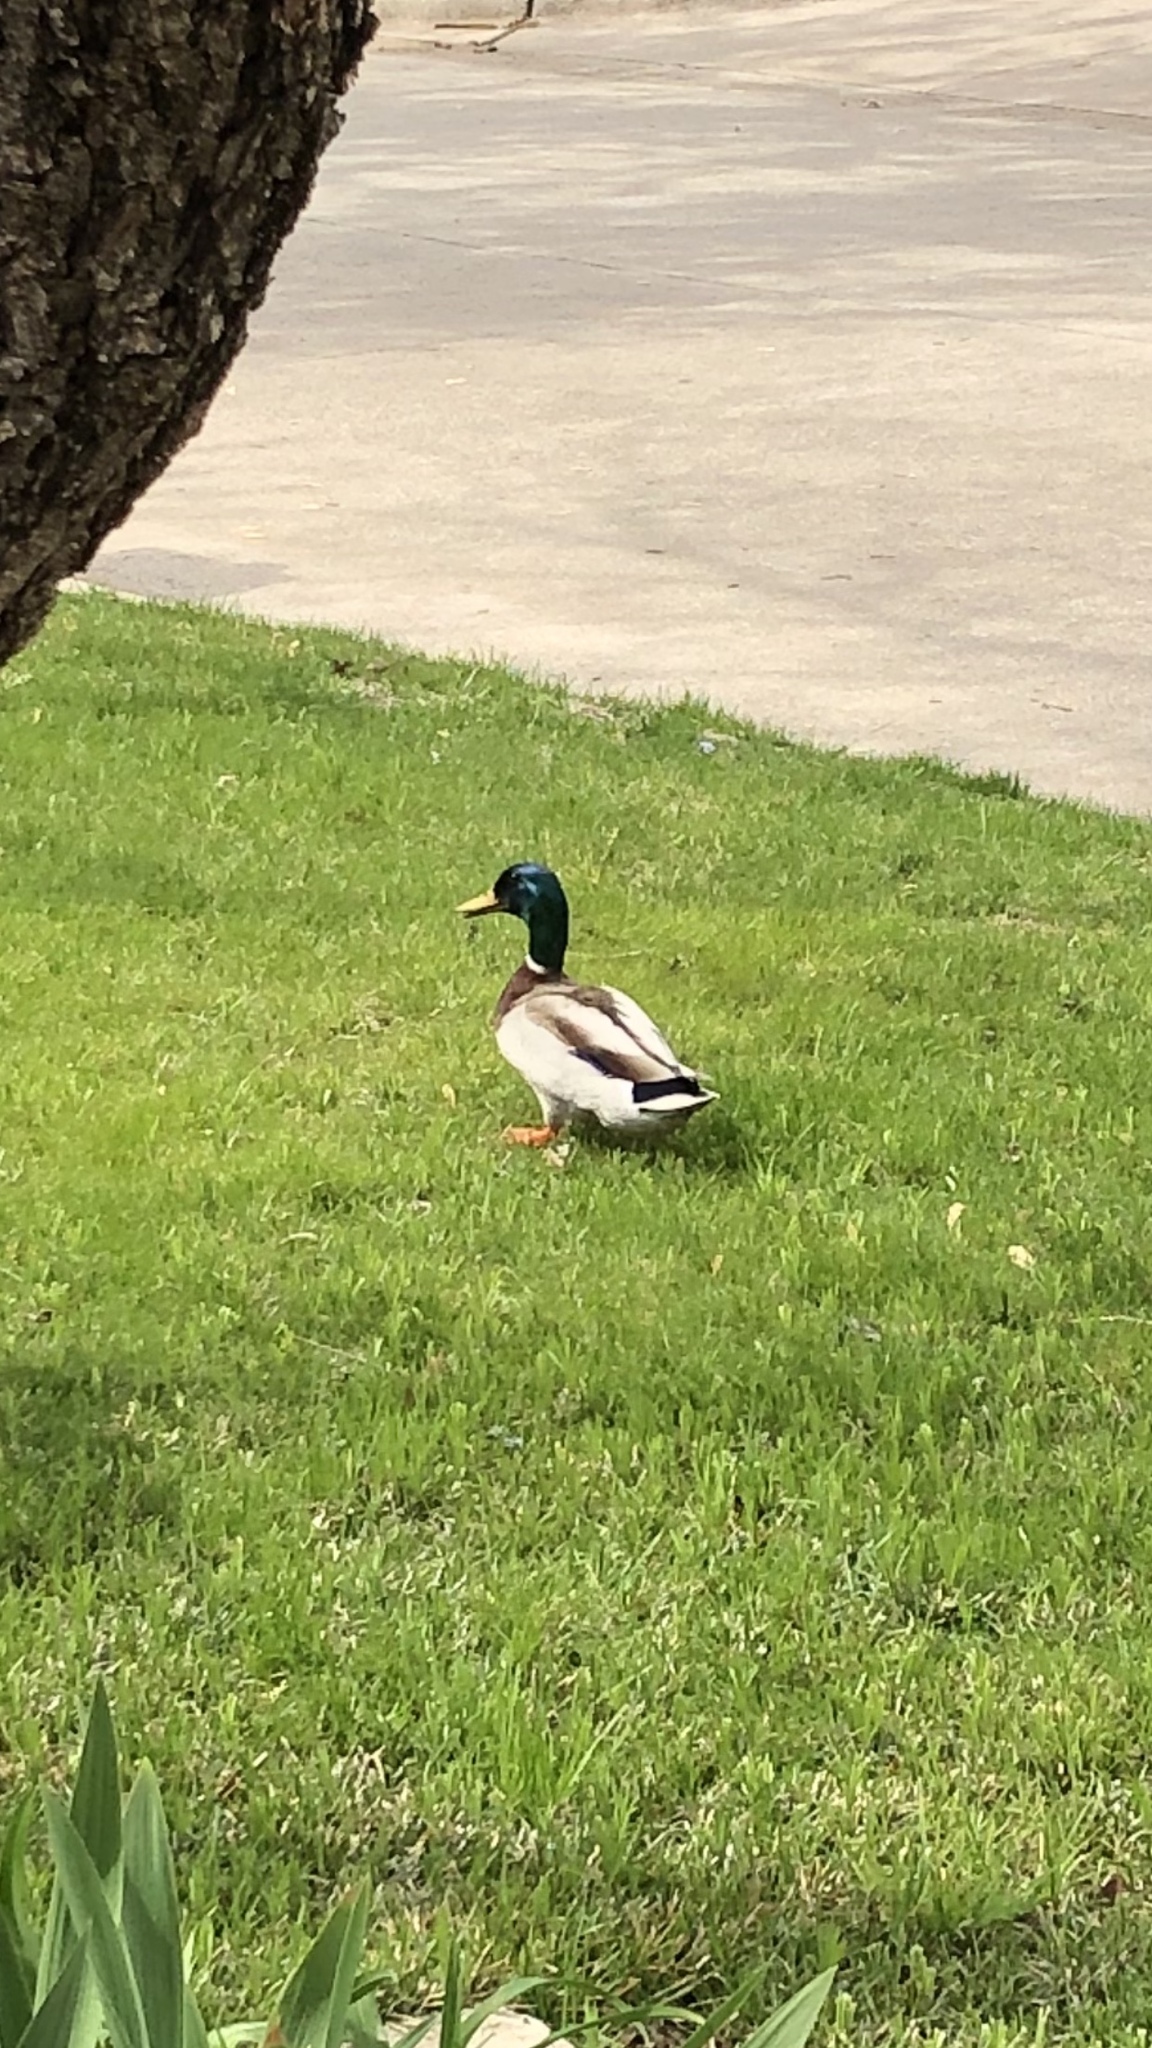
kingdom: Animalia
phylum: Chordata
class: Aves
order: Anseriformes
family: Anatidae
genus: Anas
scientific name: Anas platyrhynchos
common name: Mallard
